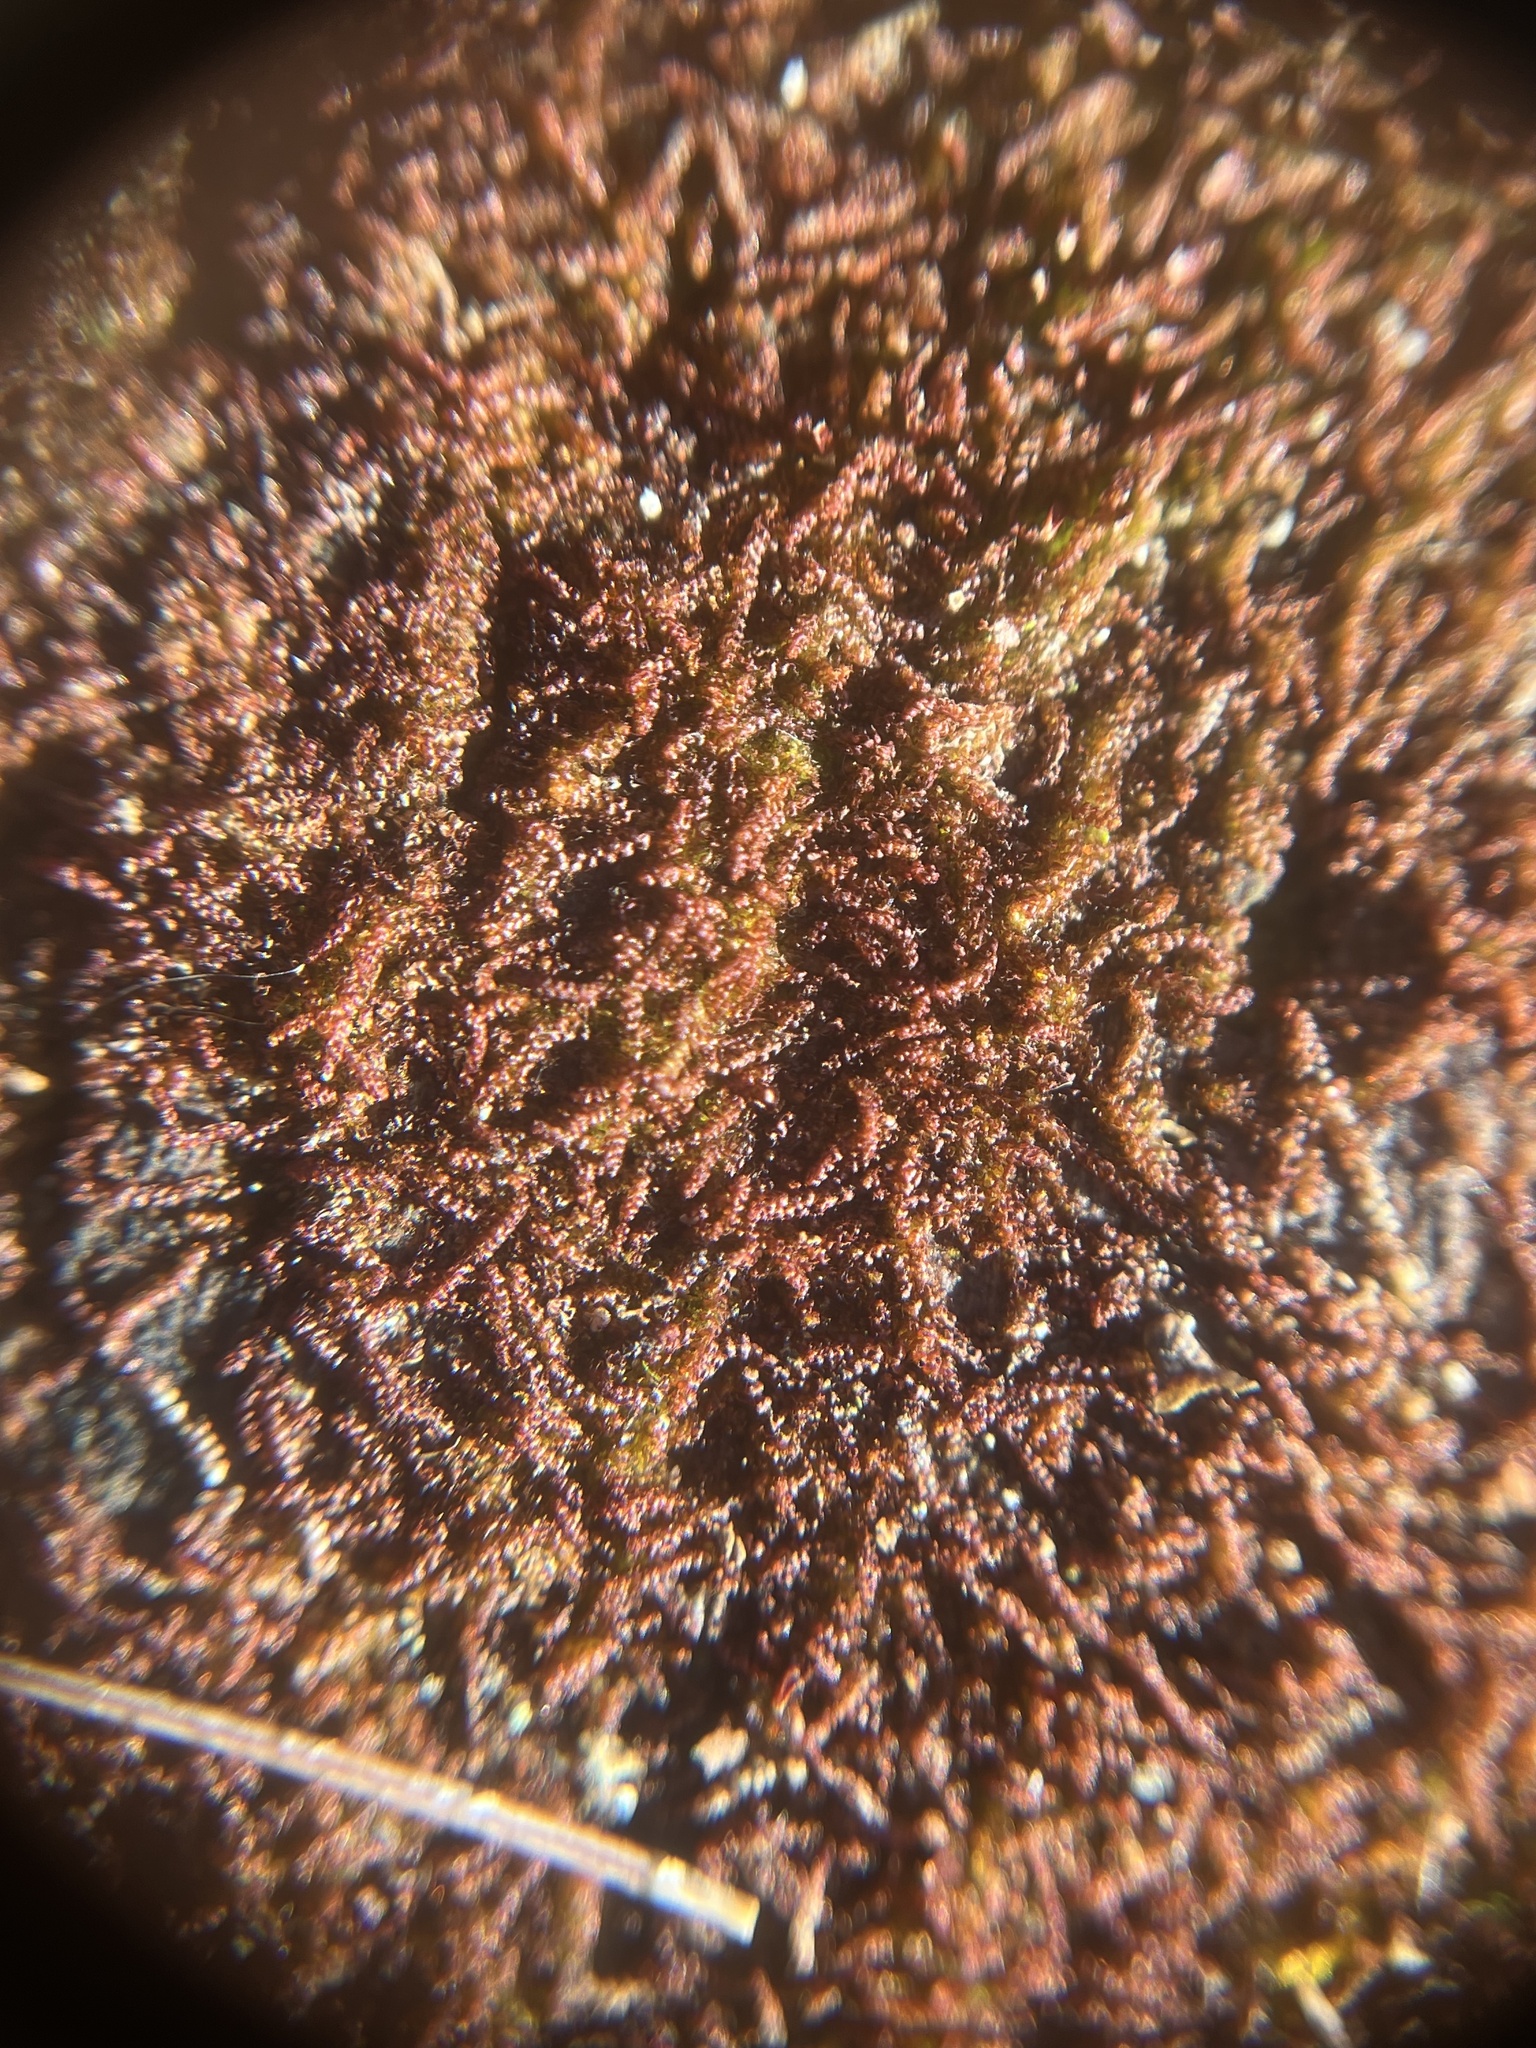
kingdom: Plantae
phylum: Marchantiophyta
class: Jungermanniopsida
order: Jungermanniales
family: Cephaloziaceae
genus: Nowellia
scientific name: Nowellia curvifolia
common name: Wood rustwort
